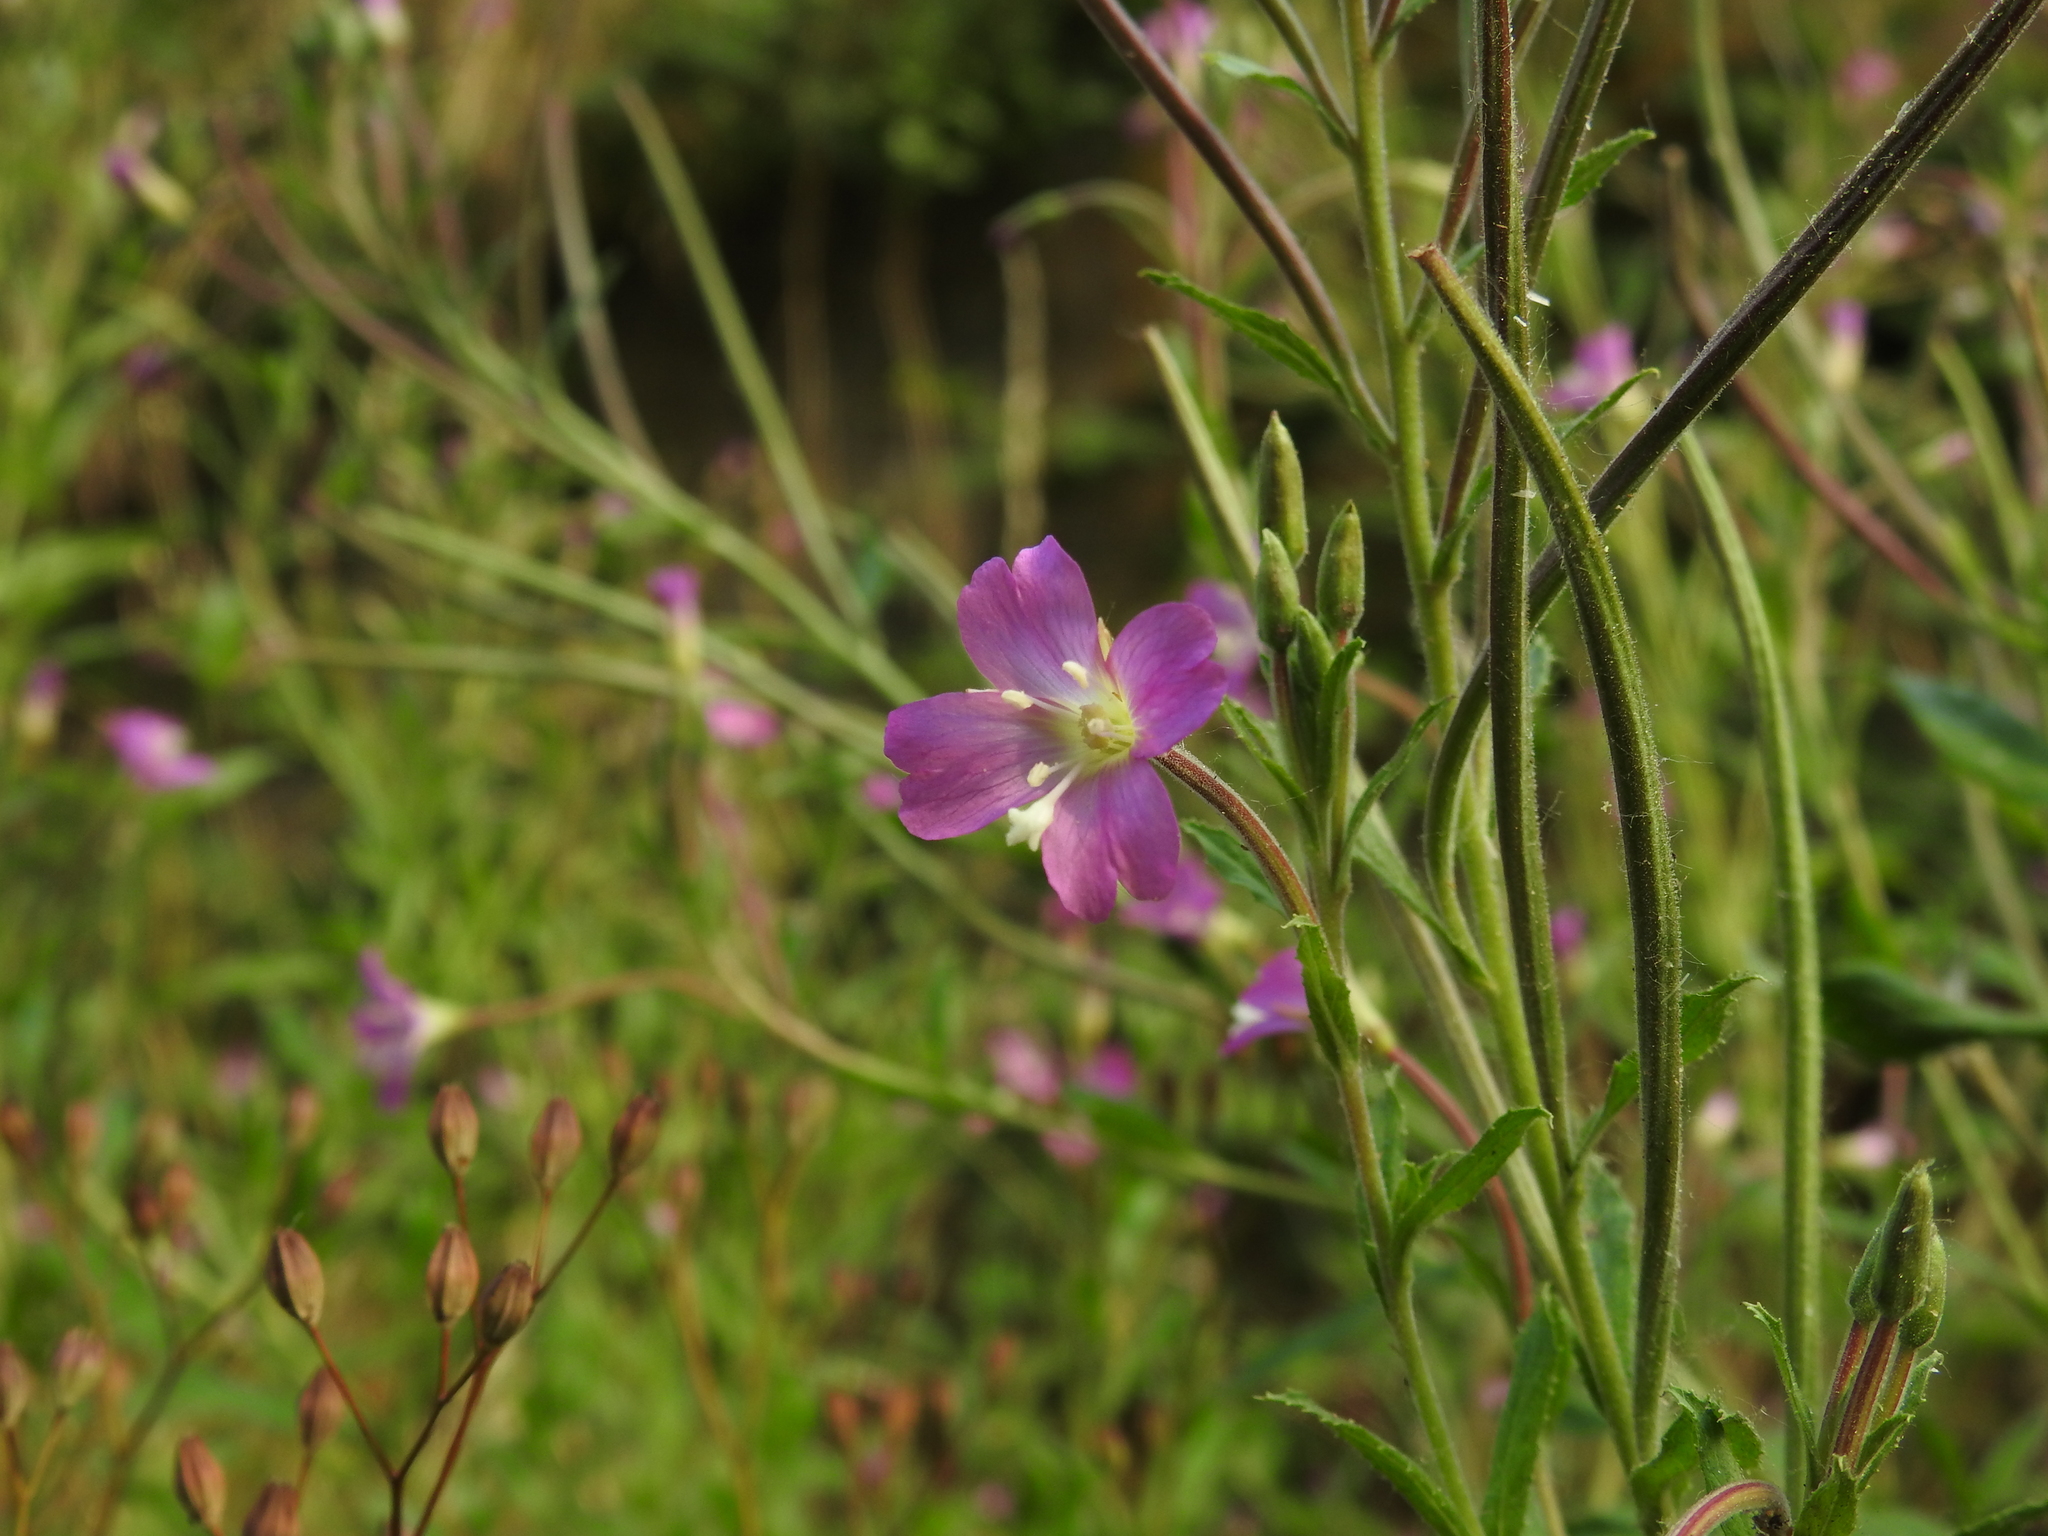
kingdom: Plantae
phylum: Tracheophyta
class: Magnoliopsida
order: Myrtales
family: Onagraceae
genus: Epilobium
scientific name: Epilobium hirsutum
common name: Great willowherb
